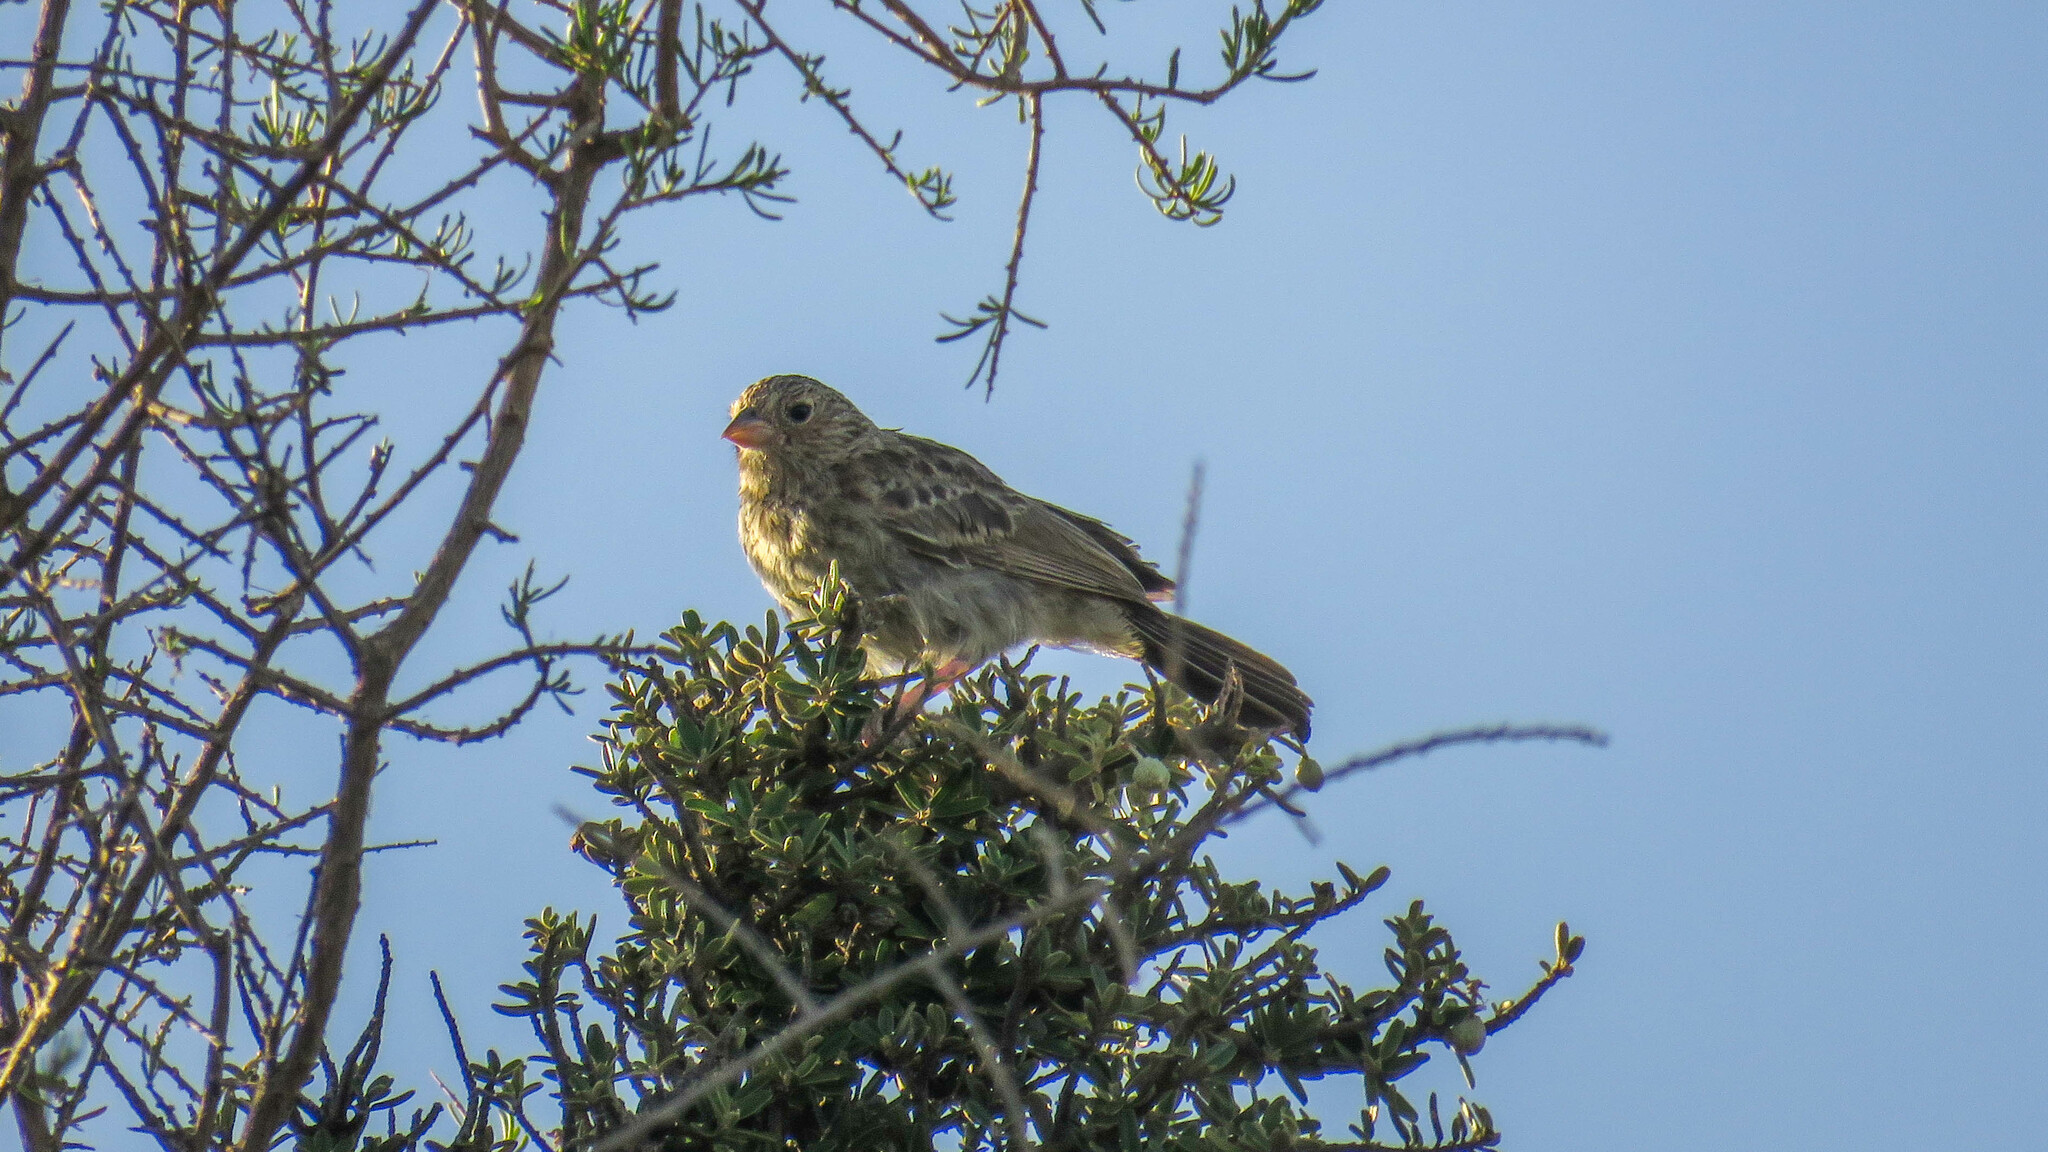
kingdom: Animalia
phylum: Chordata
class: Aves
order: Passeriformes
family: Thraupidae
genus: Porphyrospiza
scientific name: Porphyrospiza carbonaria
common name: Carbon finch
